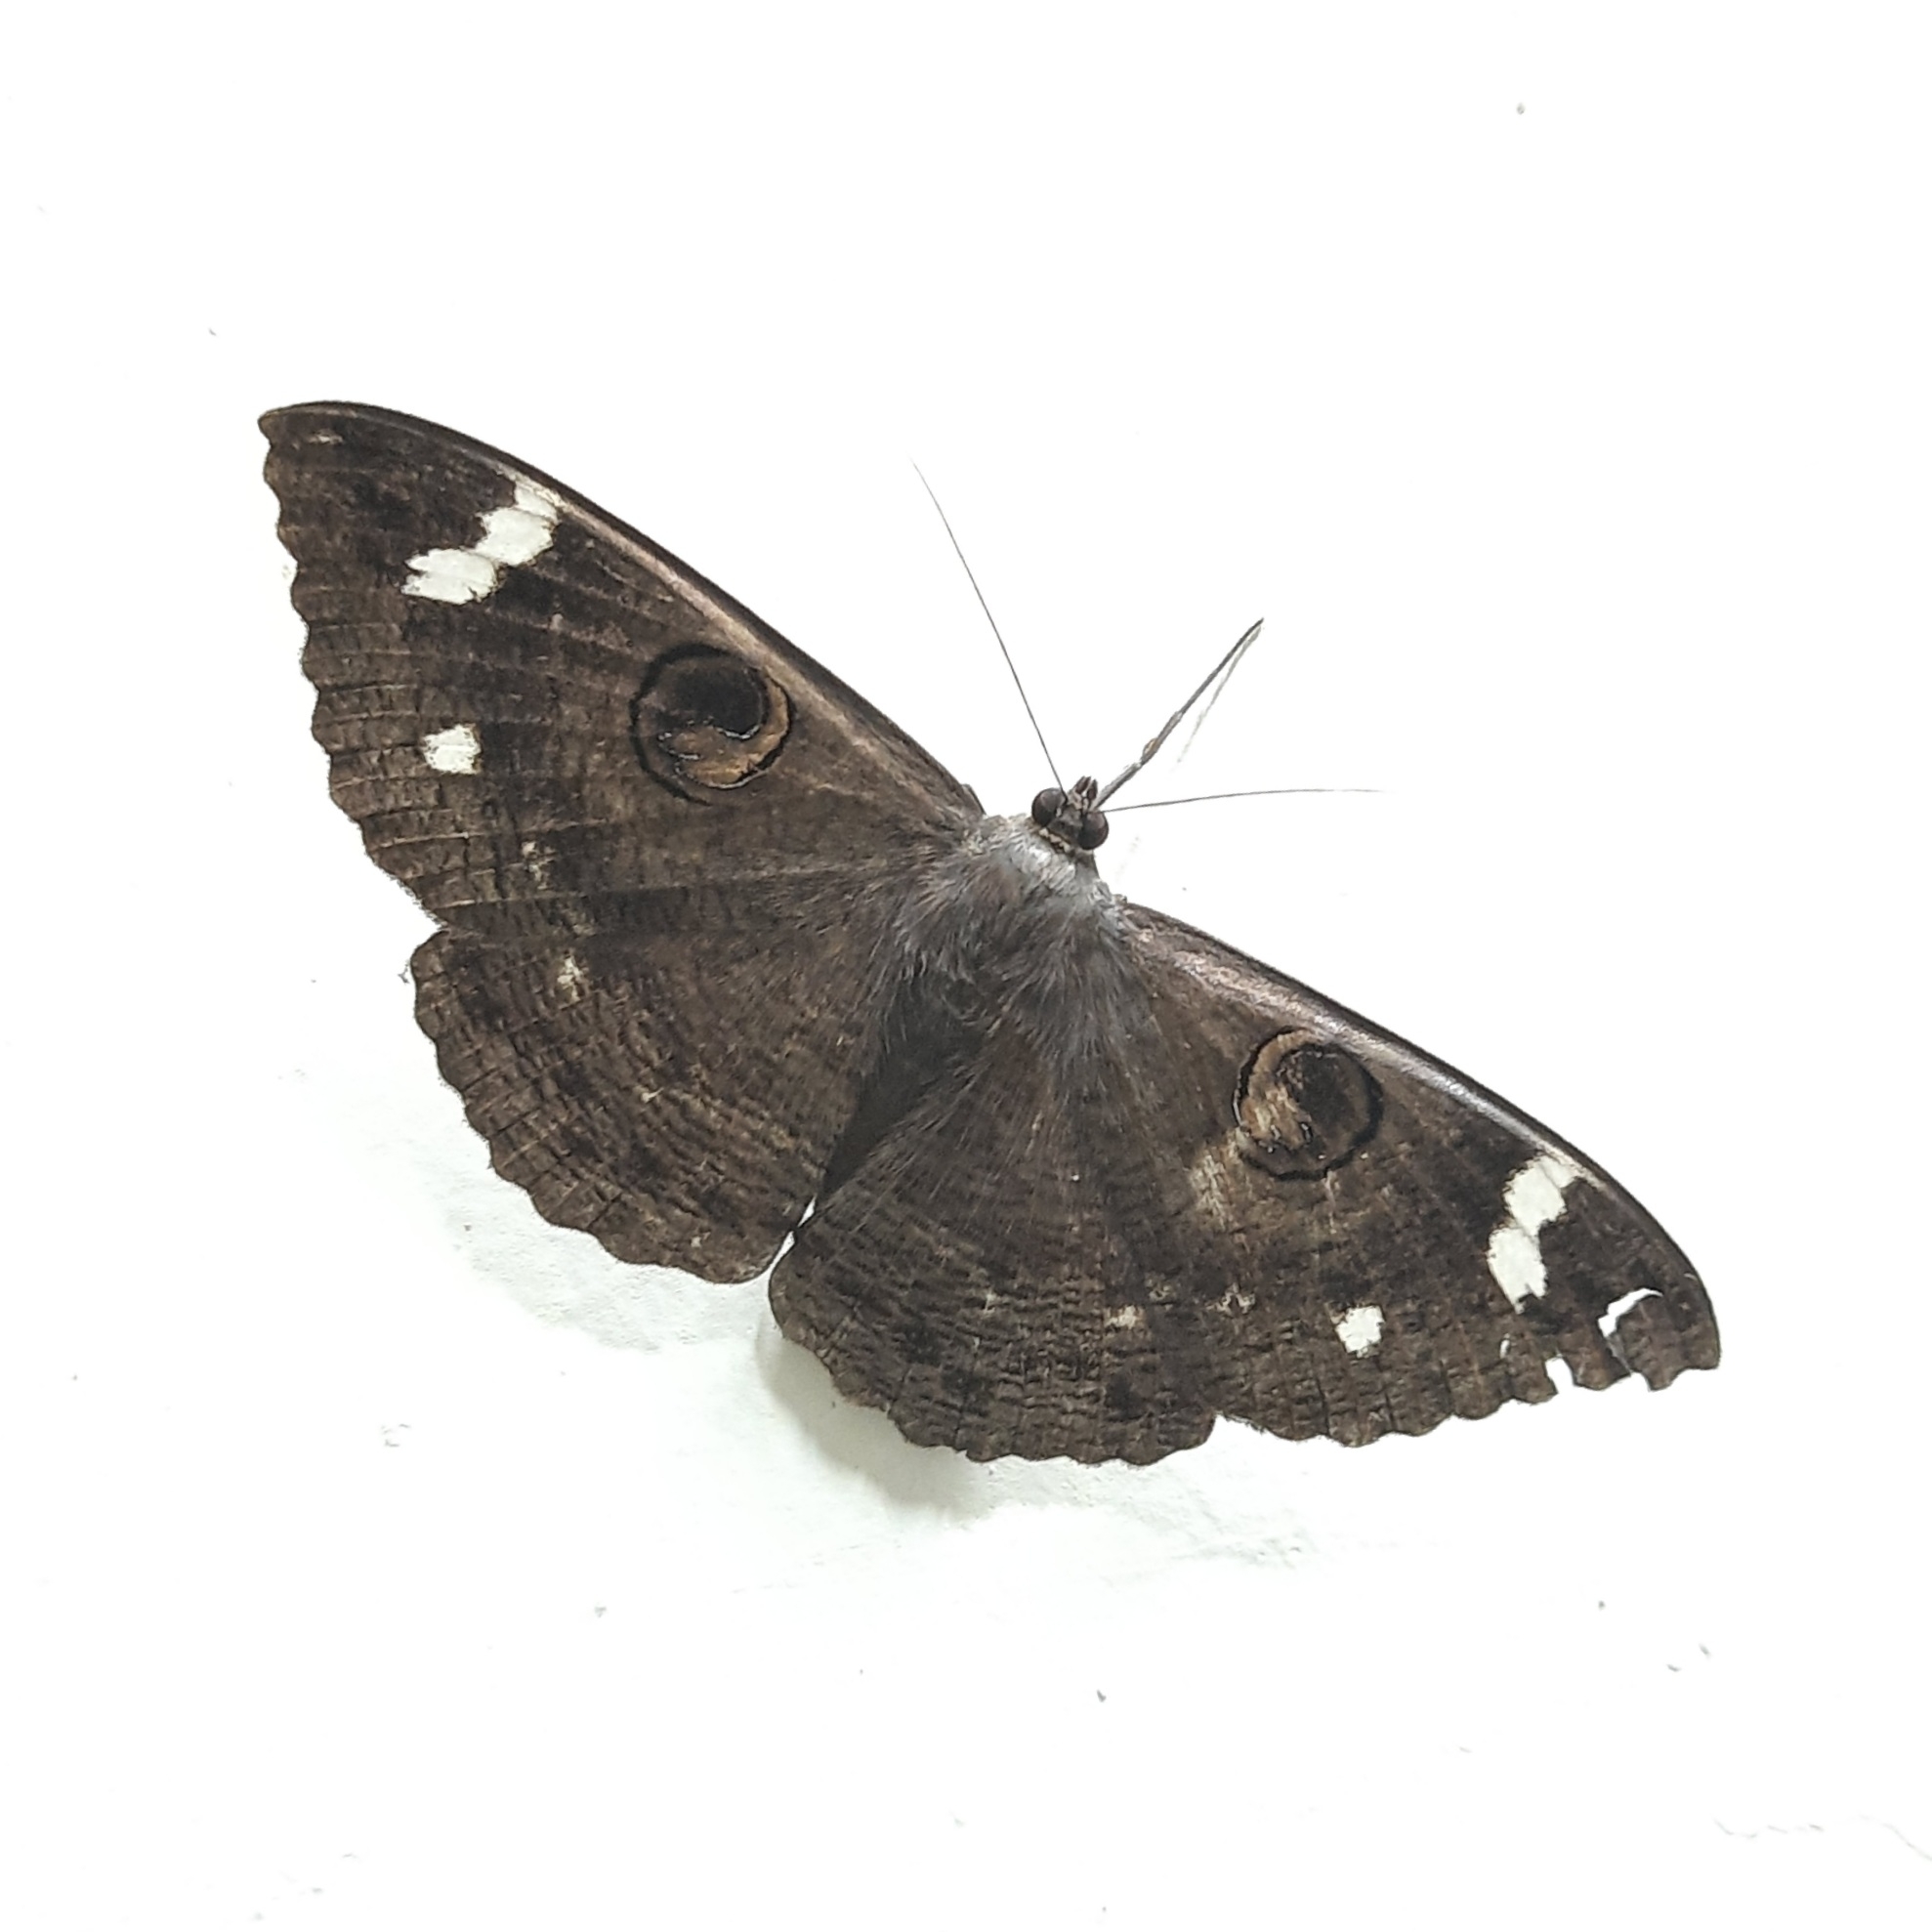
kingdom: Animalia
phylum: Arthropoda
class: Insecta
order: Lepidoptera
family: Erebidae
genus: Erebus
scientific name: Erebus hieroglyphica
